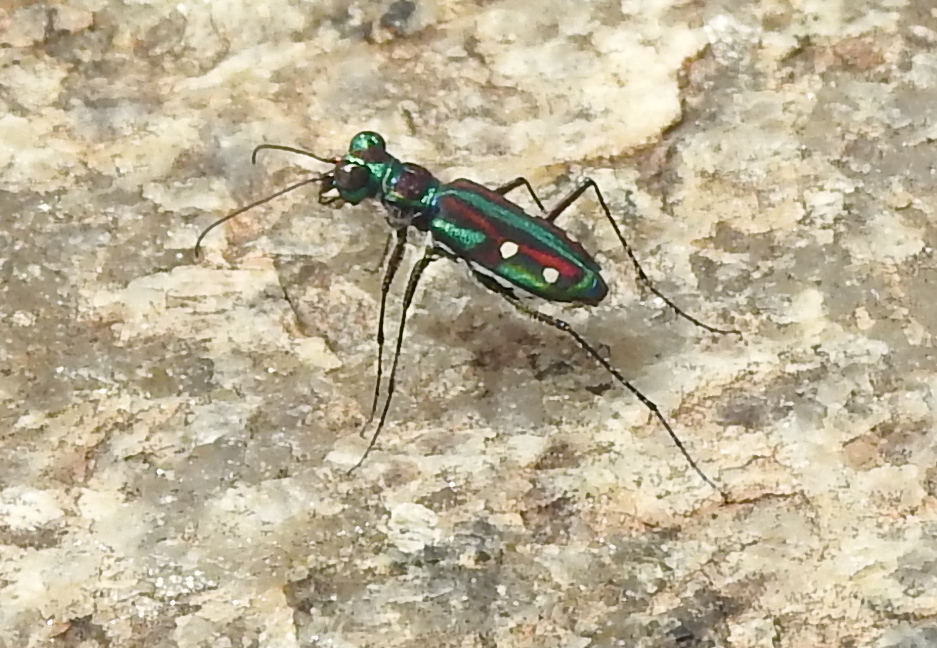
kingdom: Animalia
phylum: Arthropoda
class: Insecta
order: Coleoptera
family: Carabidae
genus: Jansenia
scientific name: Jansenia rugosiceps
